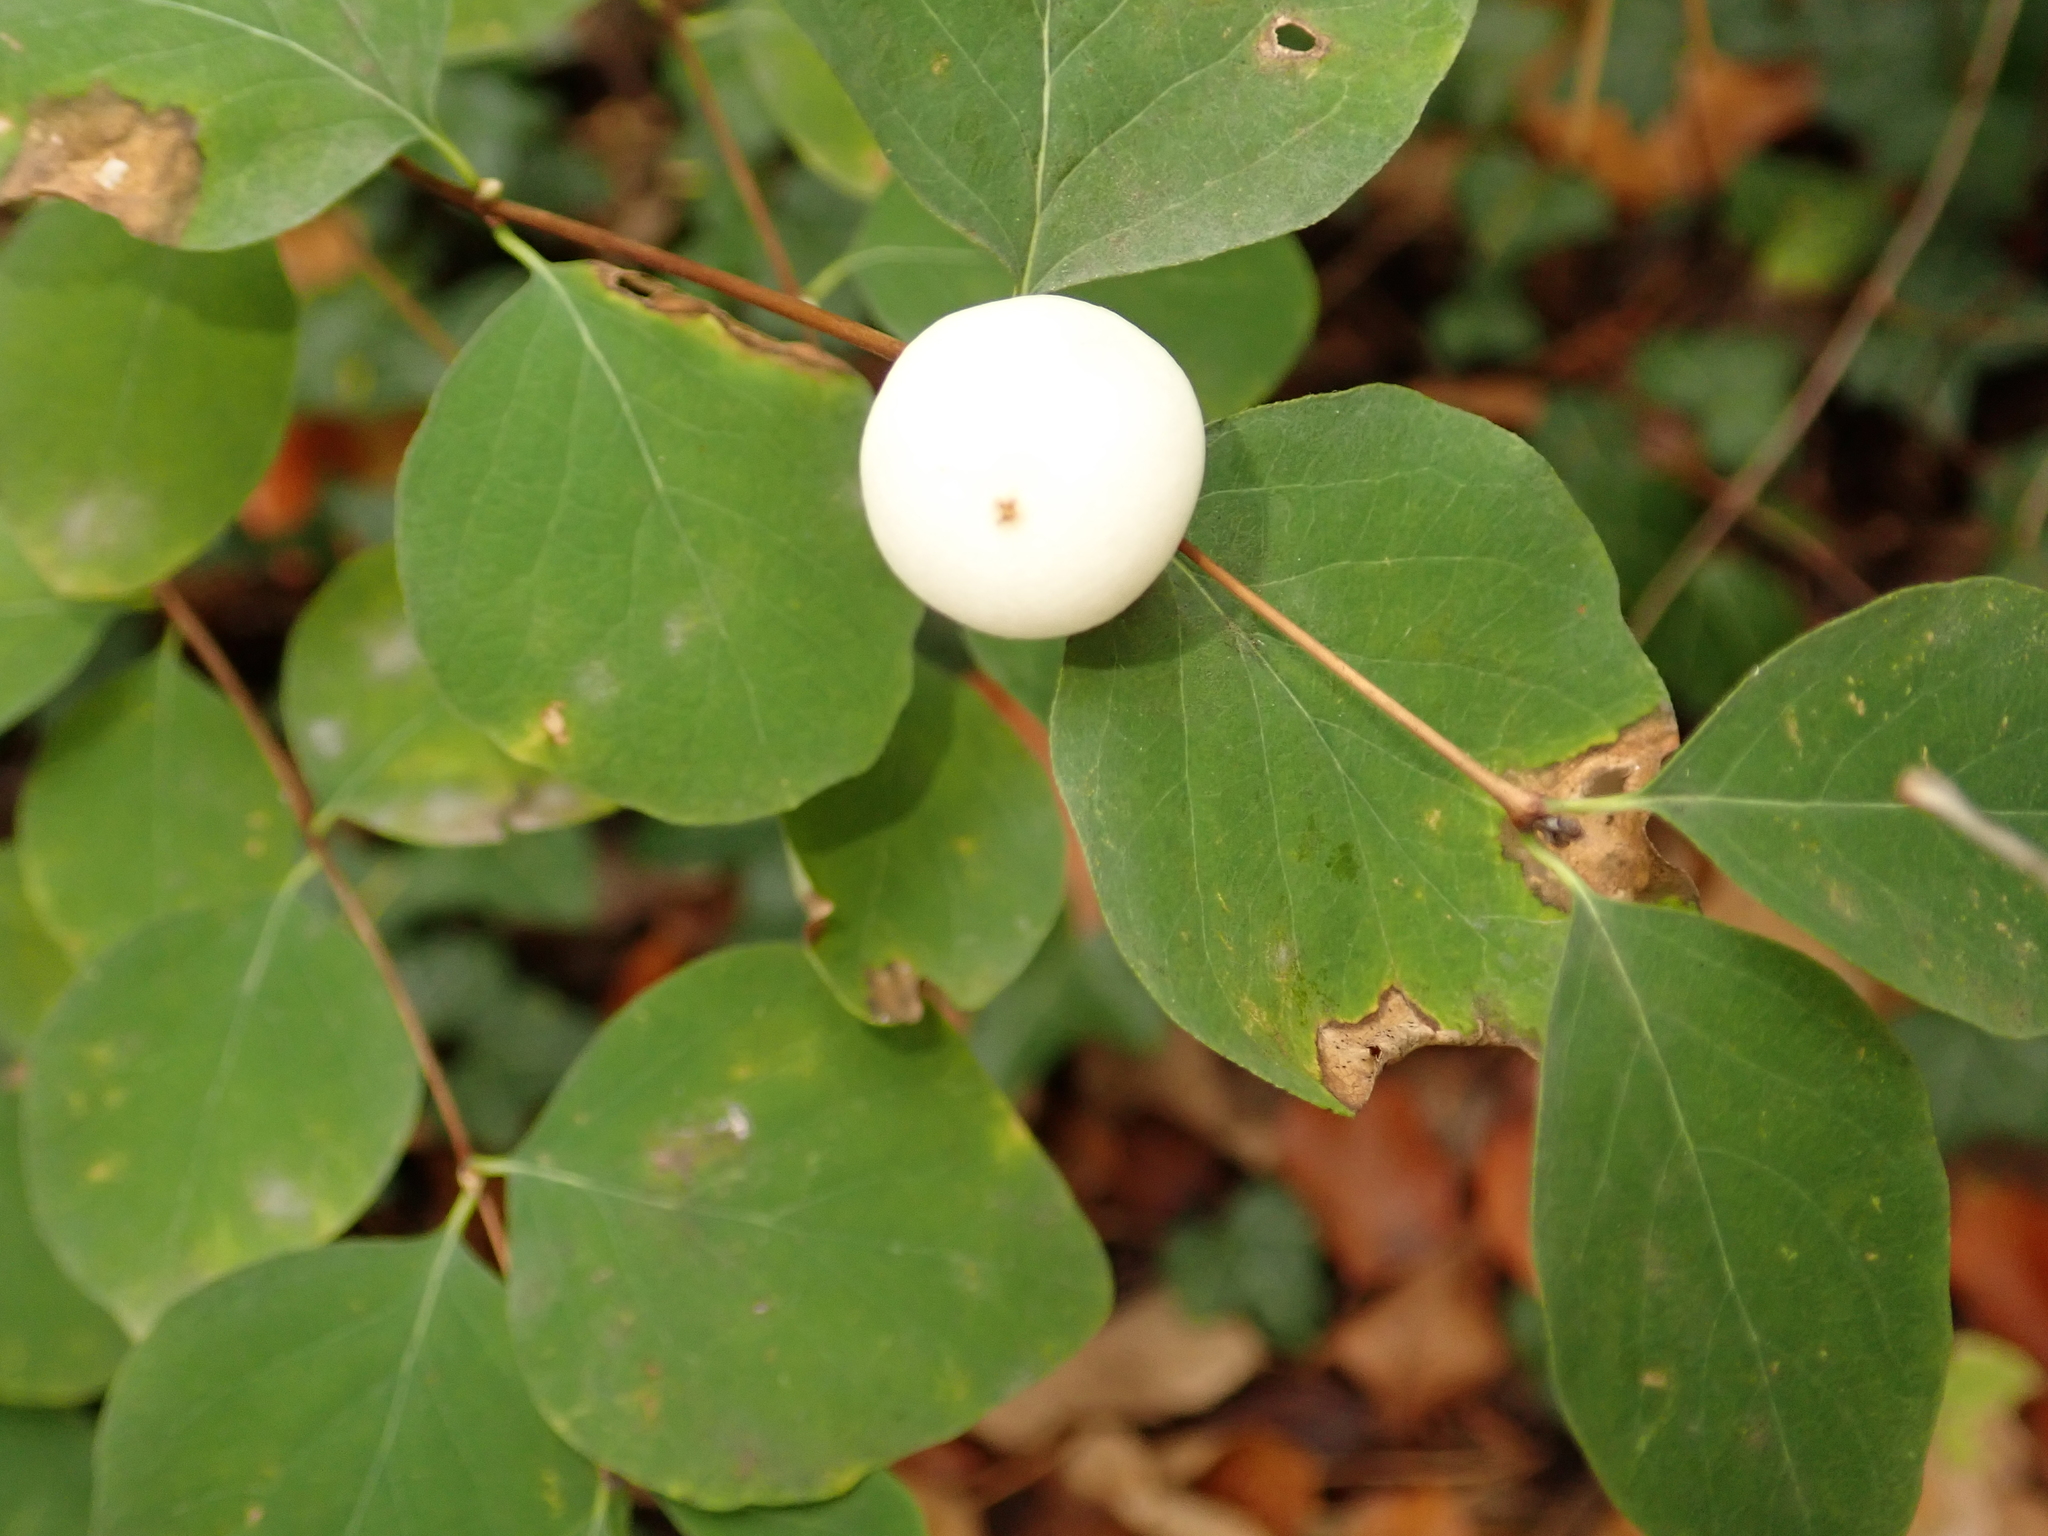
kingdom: Plantae
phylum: Tracheophyta
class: Magnoliopsida
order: Dipsacales
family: Caprifoliaceae
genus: Symphoricarpos
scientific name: Symphoricarpos albus
